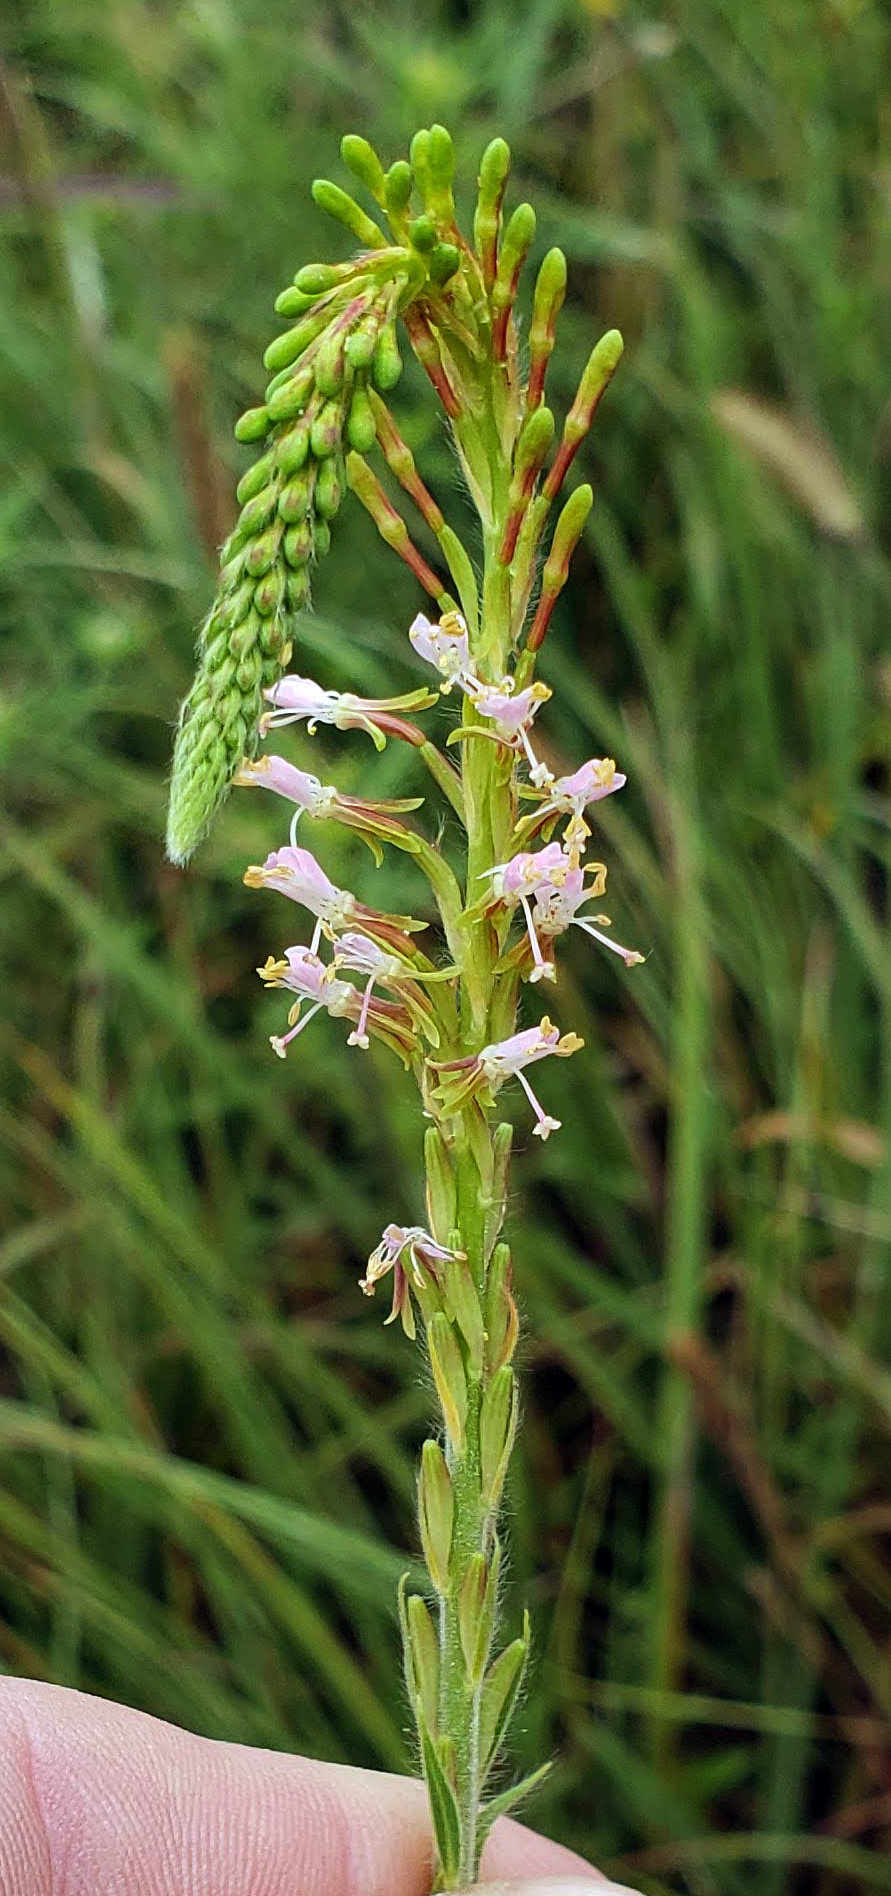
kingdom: Plantae
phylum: Tracheophyta
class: Magnoliopsida
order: Myrtales
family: Onagraceae
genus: Oenothera
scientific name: Oenothera curtiflora
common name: Velvetweed
